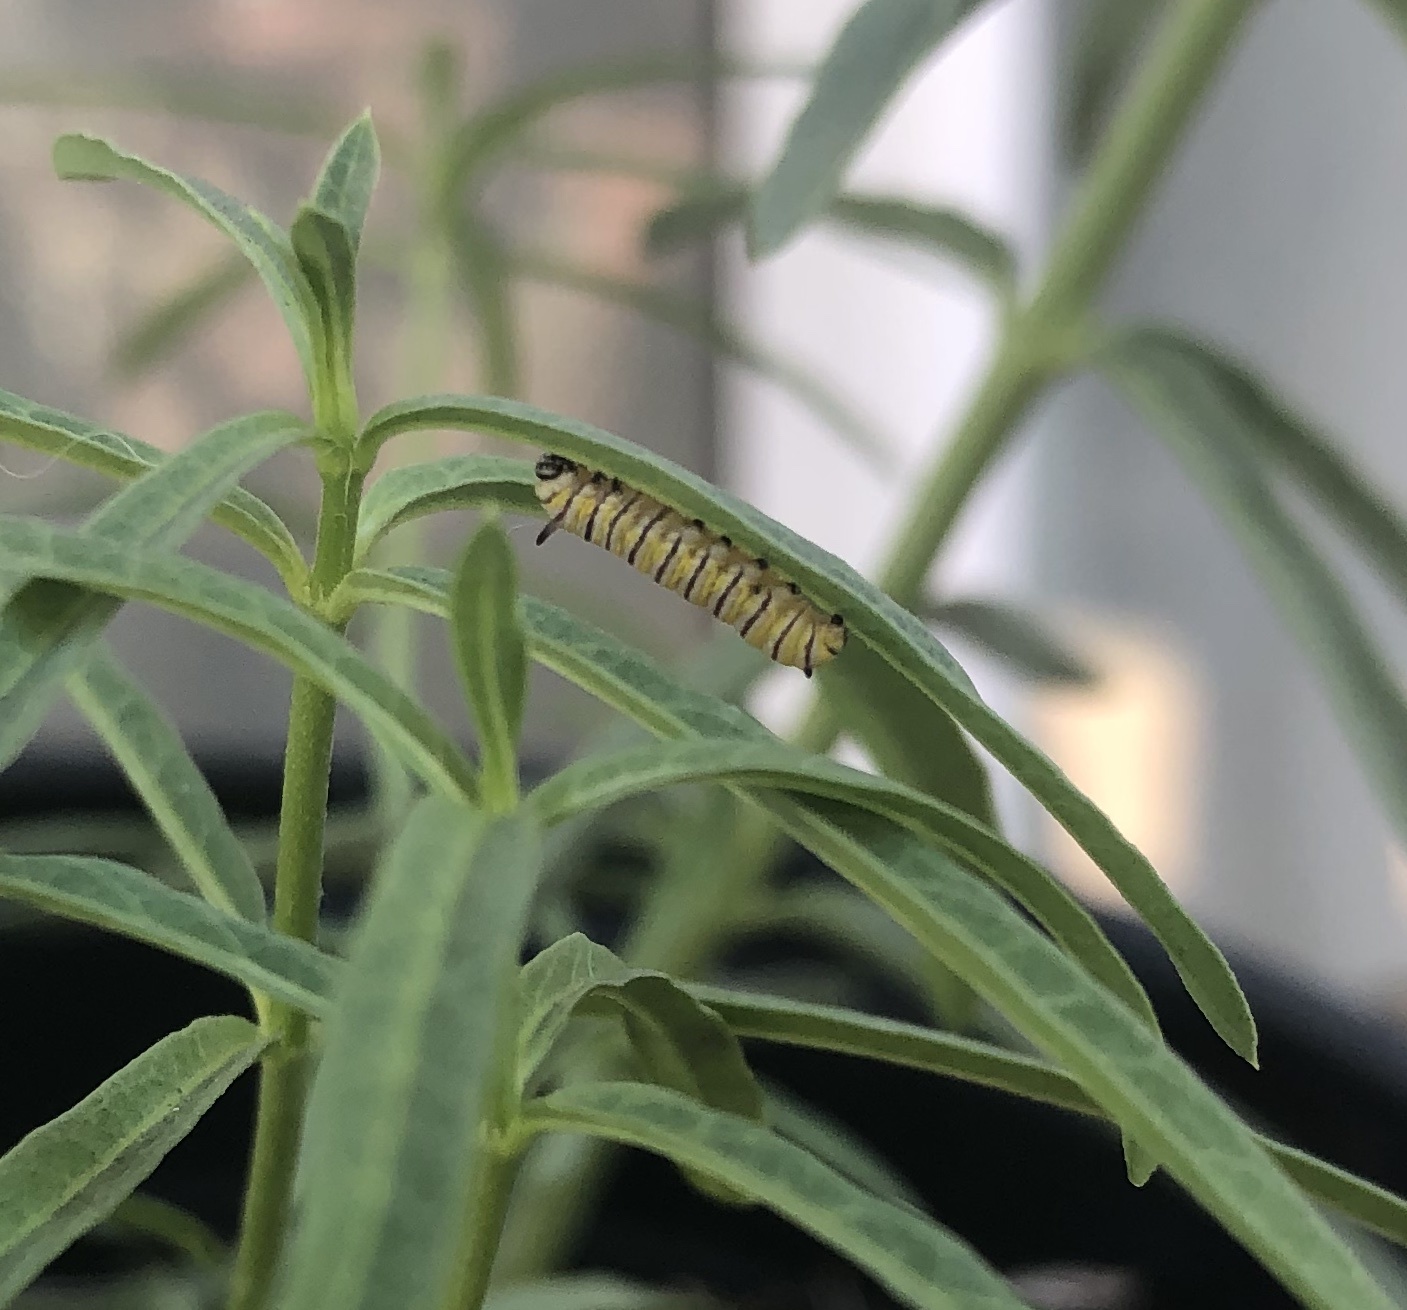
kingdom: Animalia
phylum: Arthropoda
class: Insecta
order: Lepidoptera
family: Nymphalidae
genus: Danaus
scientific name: Danaus plexippus
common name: Monarch
